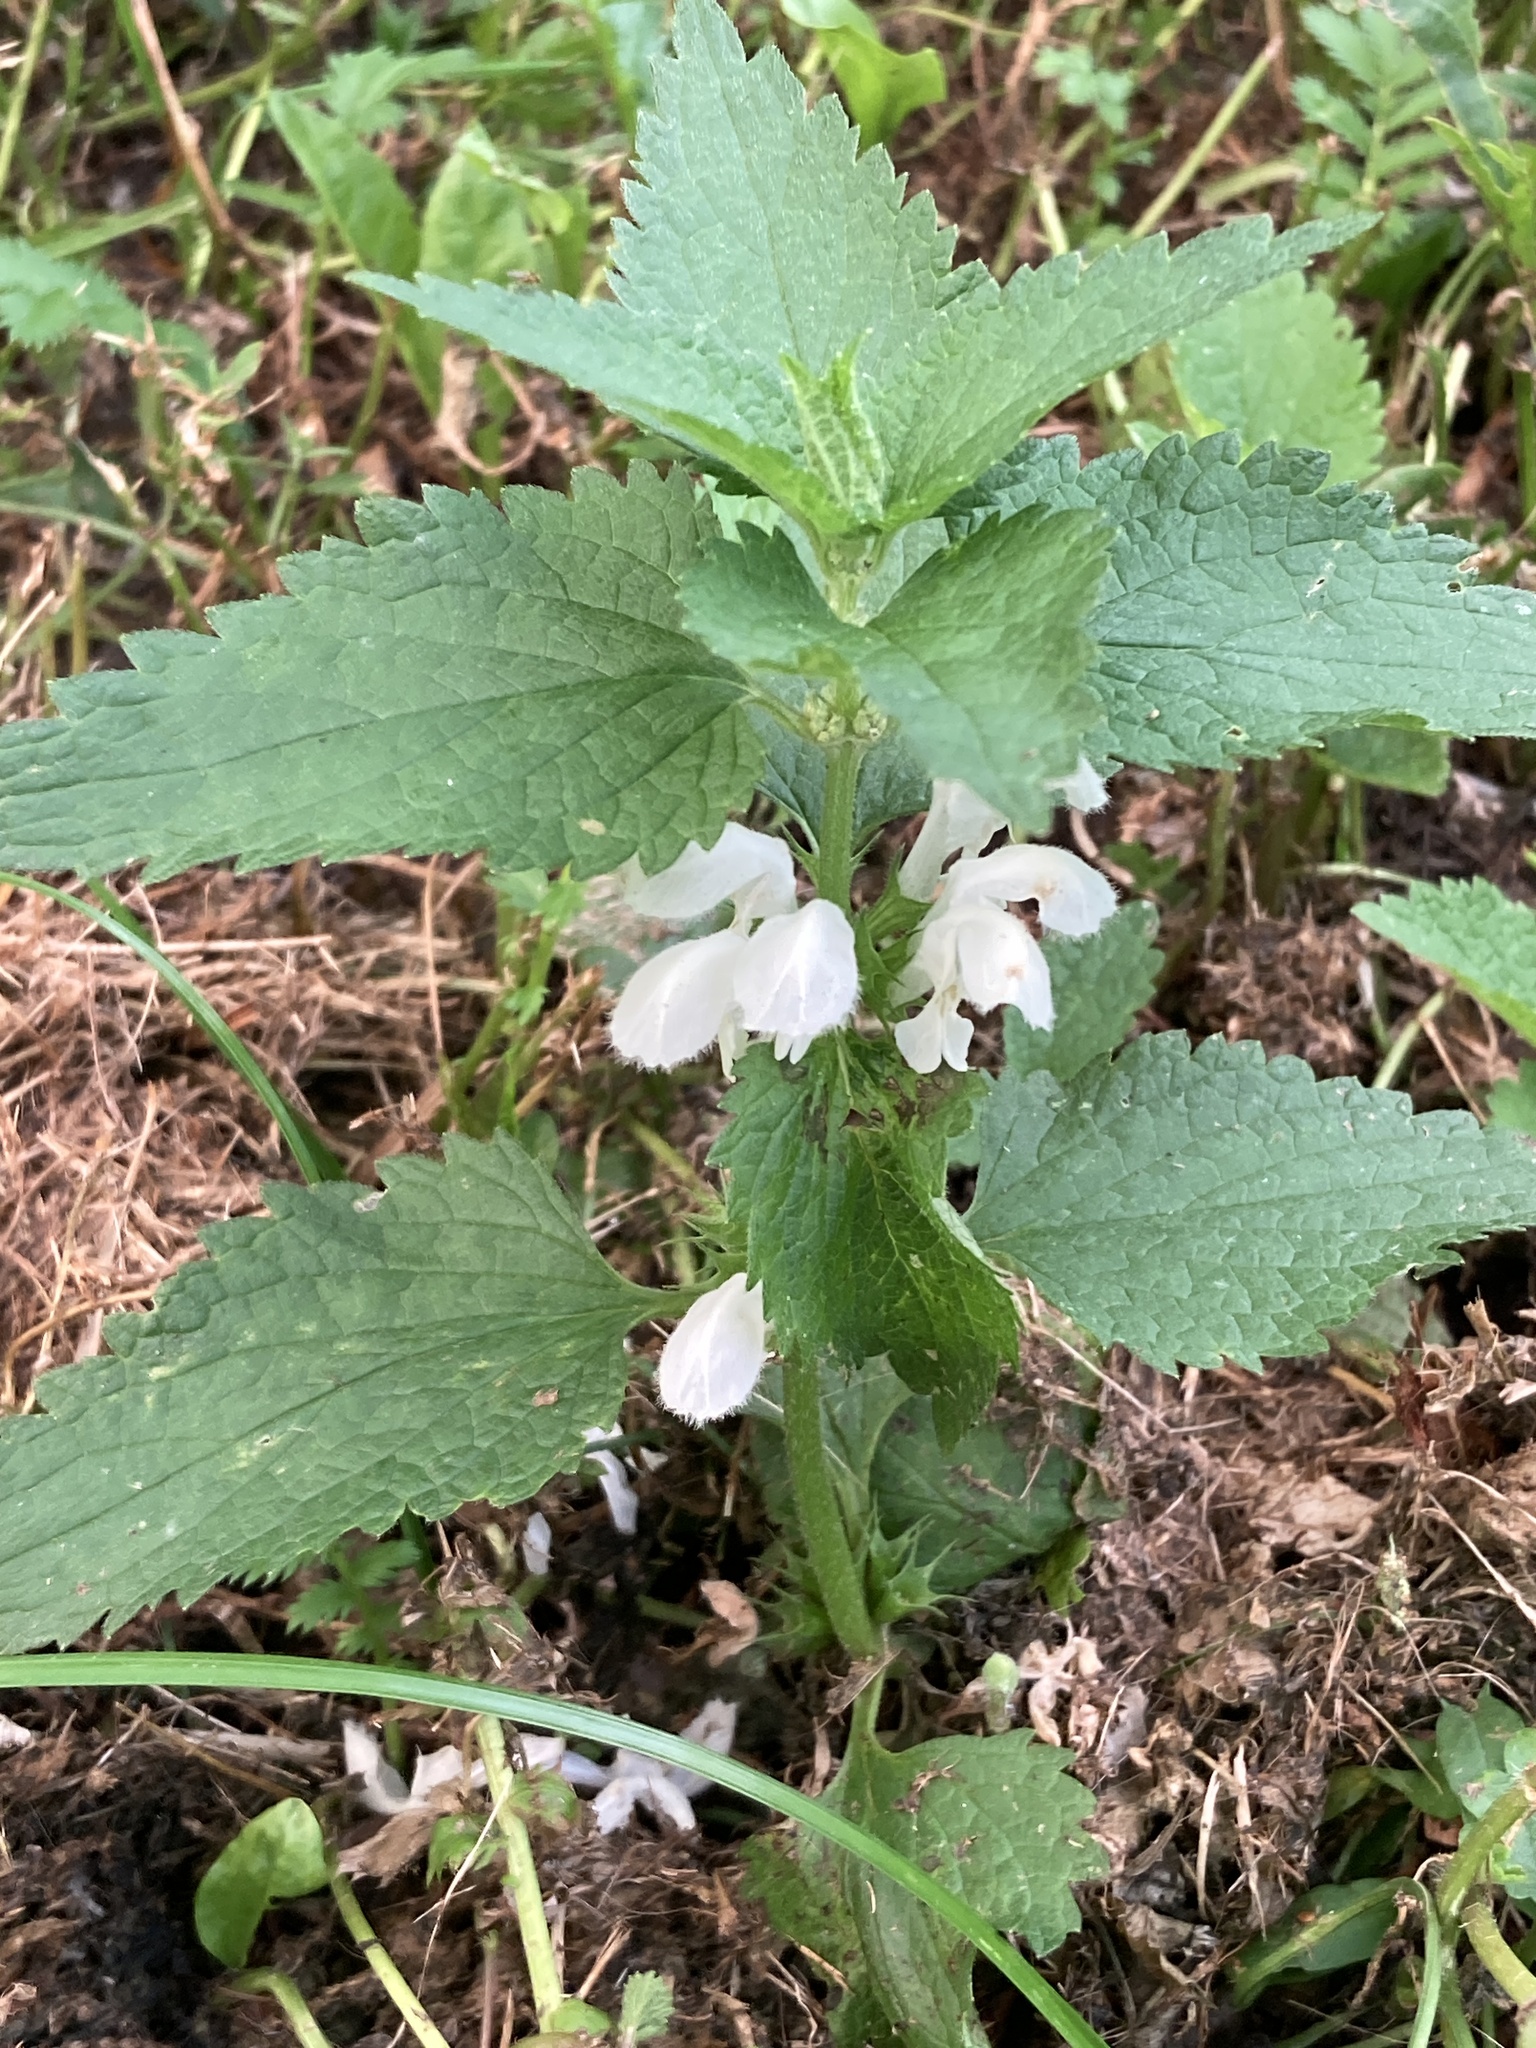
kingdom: Plantae
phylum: Tracheophyta
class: Magnoliopsida
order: Lamiales
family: Lamiaceae
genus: Lamium
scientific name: Lamium album
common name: White dead-nettle
